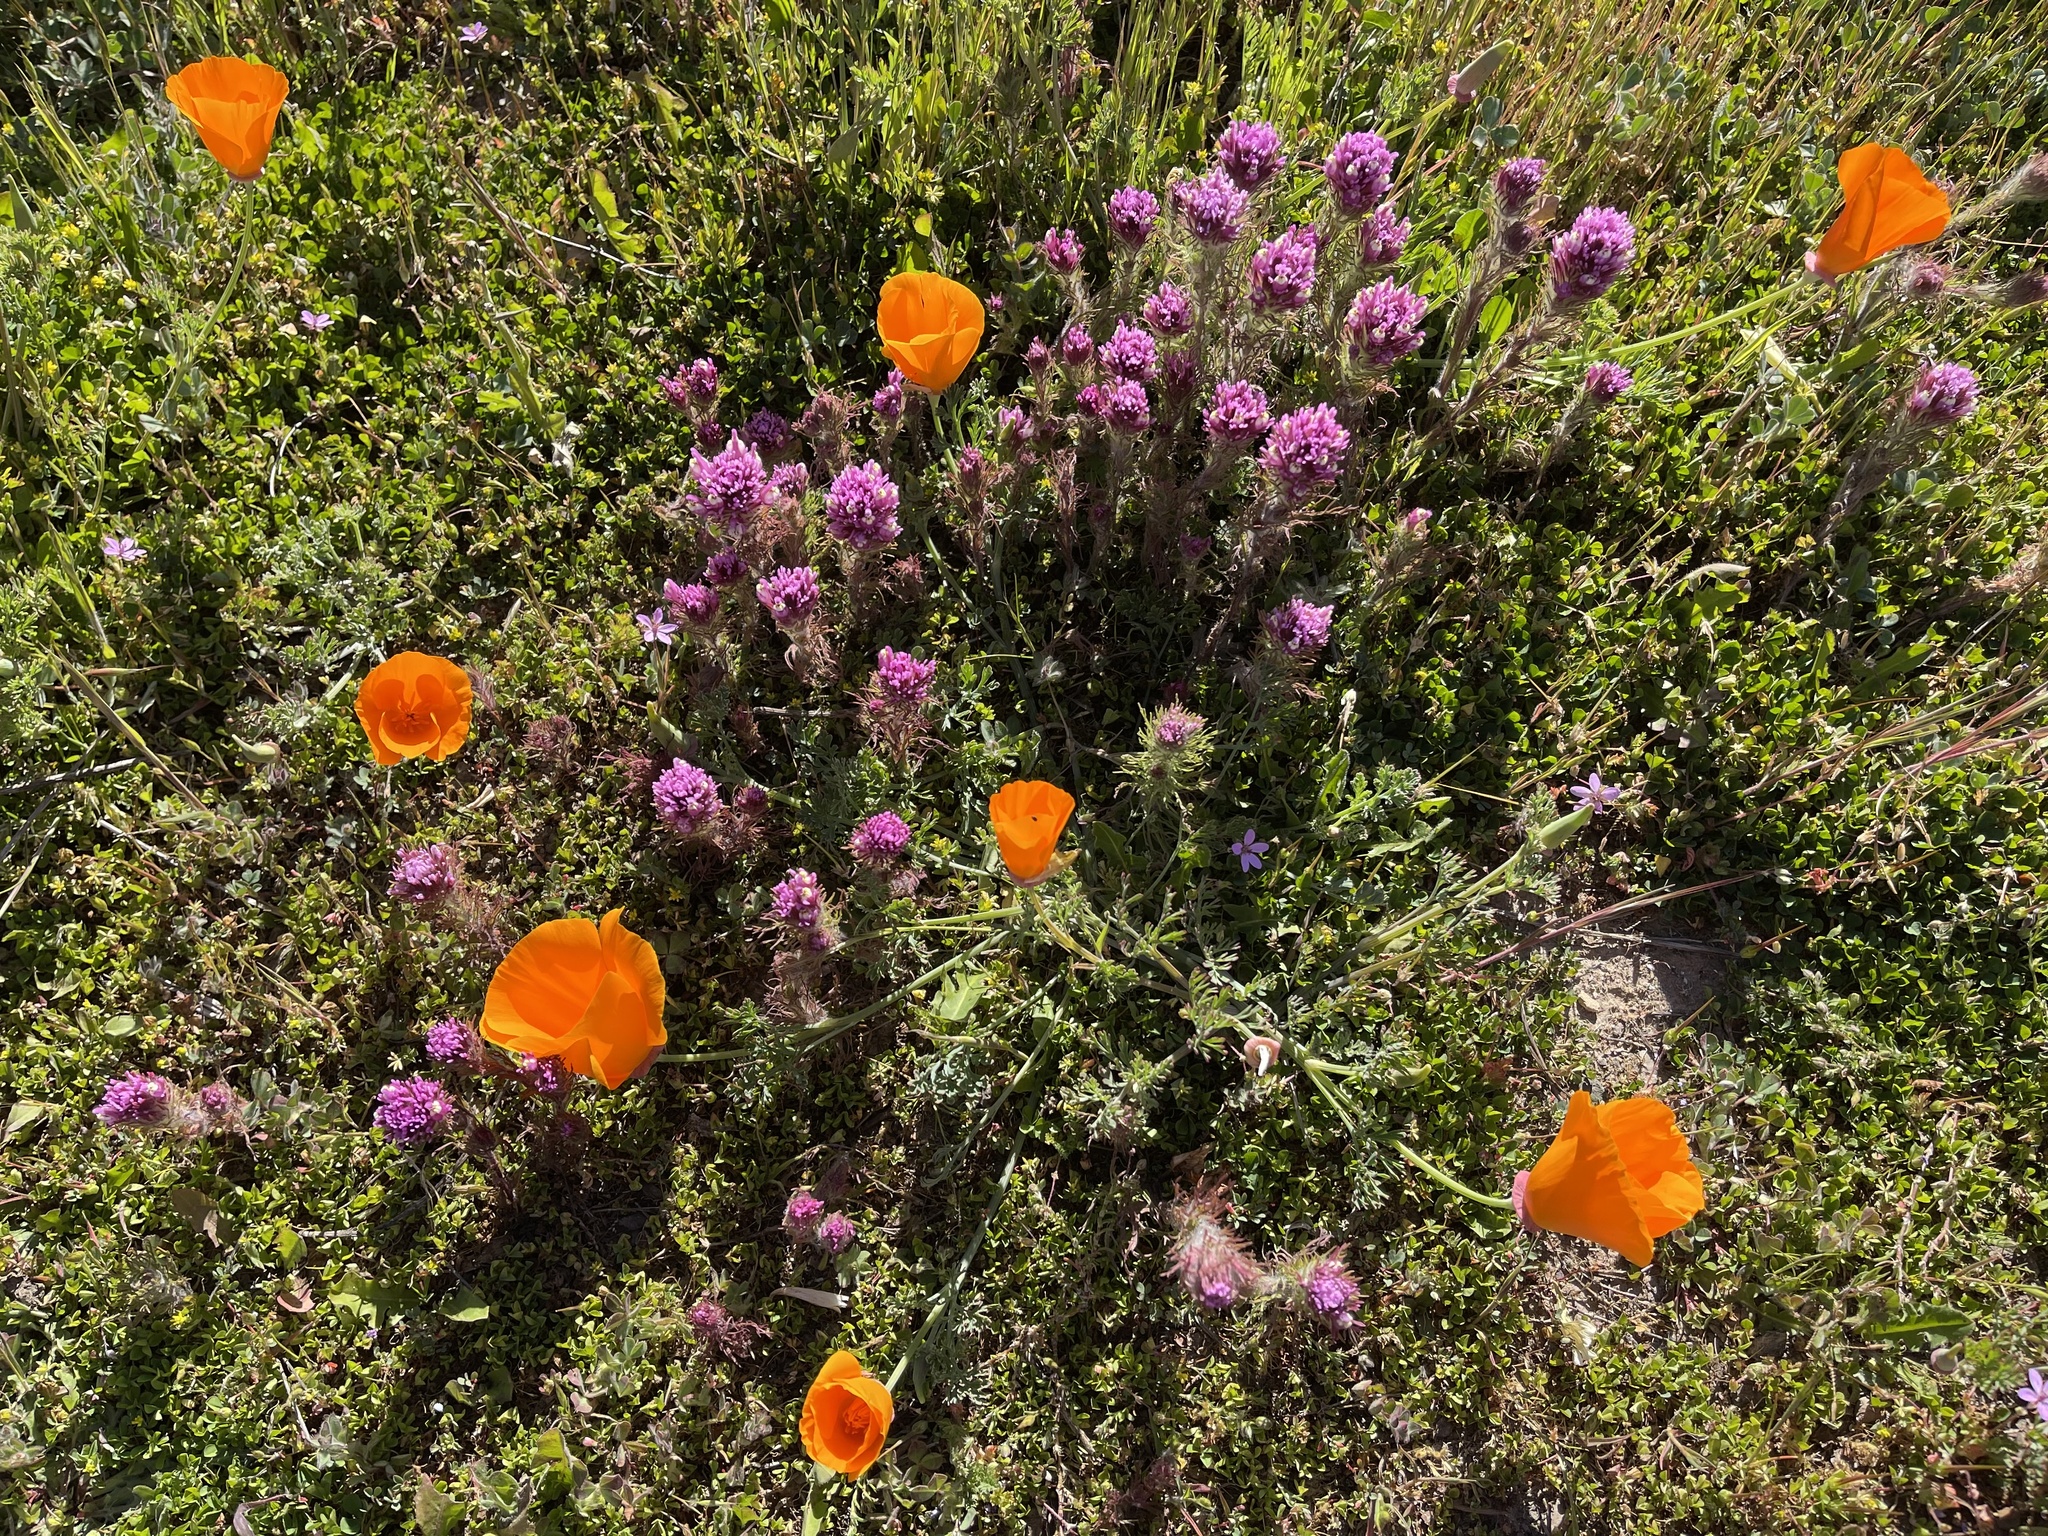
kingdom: Plantae
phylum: Tracheophyta
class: Magnoliopsida
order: Lamiales
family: Orobanchaceae
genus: Castilleja
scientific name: Castilleja exserta
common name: Purple owl-clover
